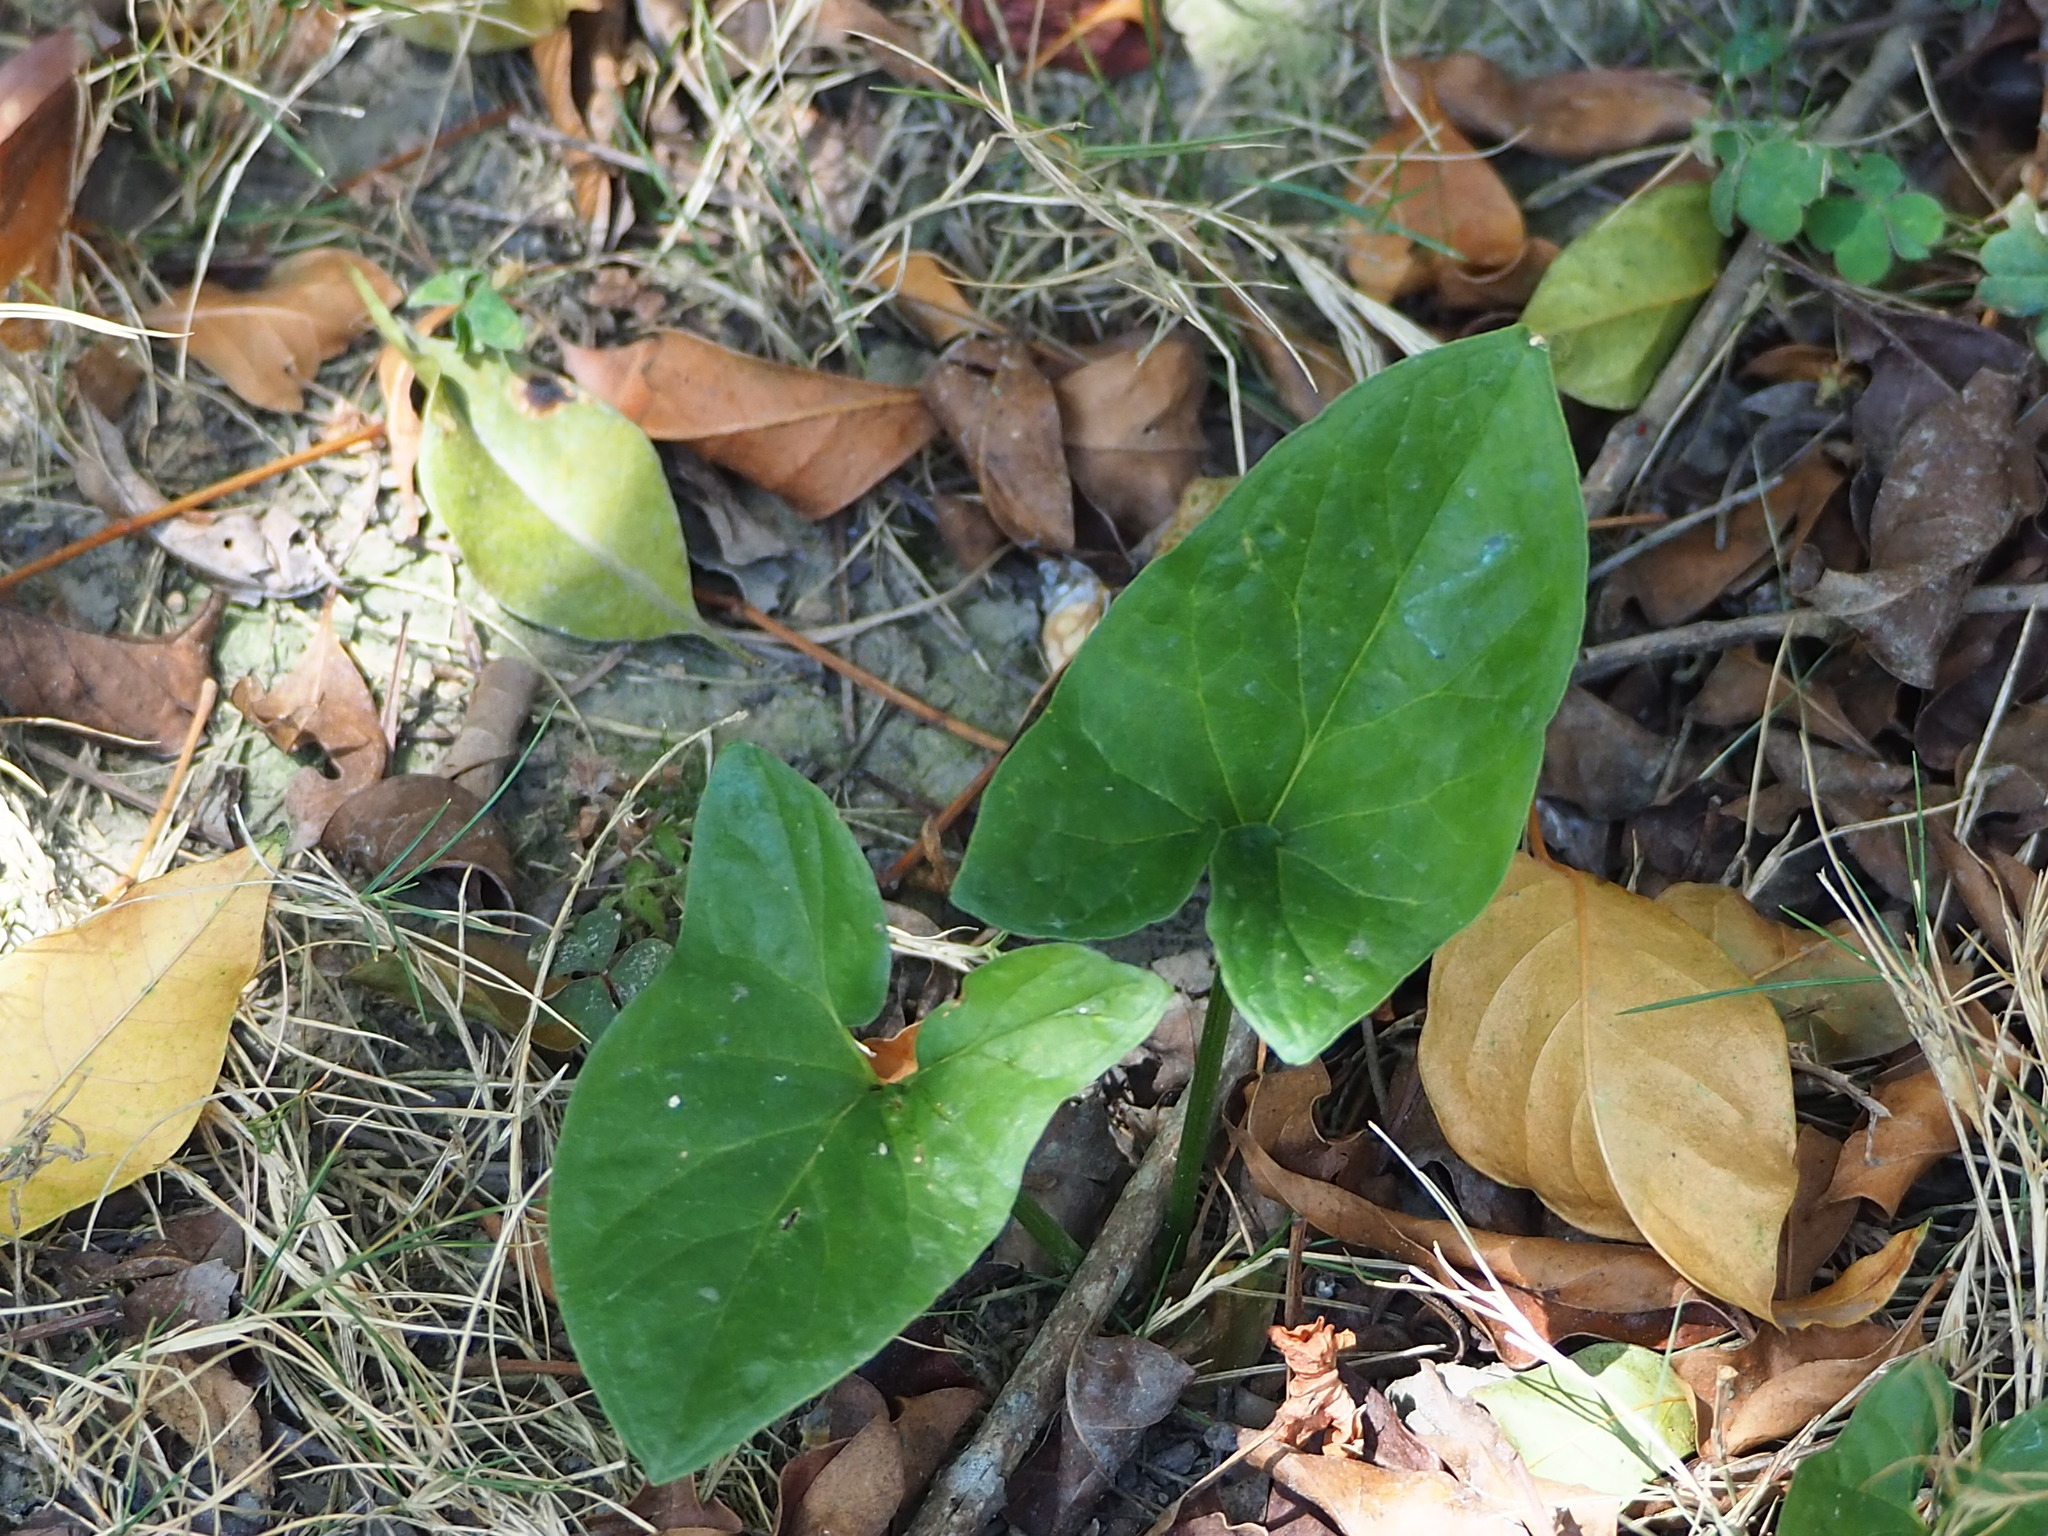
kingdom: Plantae
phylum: Tracheophyta
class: Liliopsida
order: Alismatales
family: Araceae
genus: Typhonium
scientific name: Typhonium blumei
